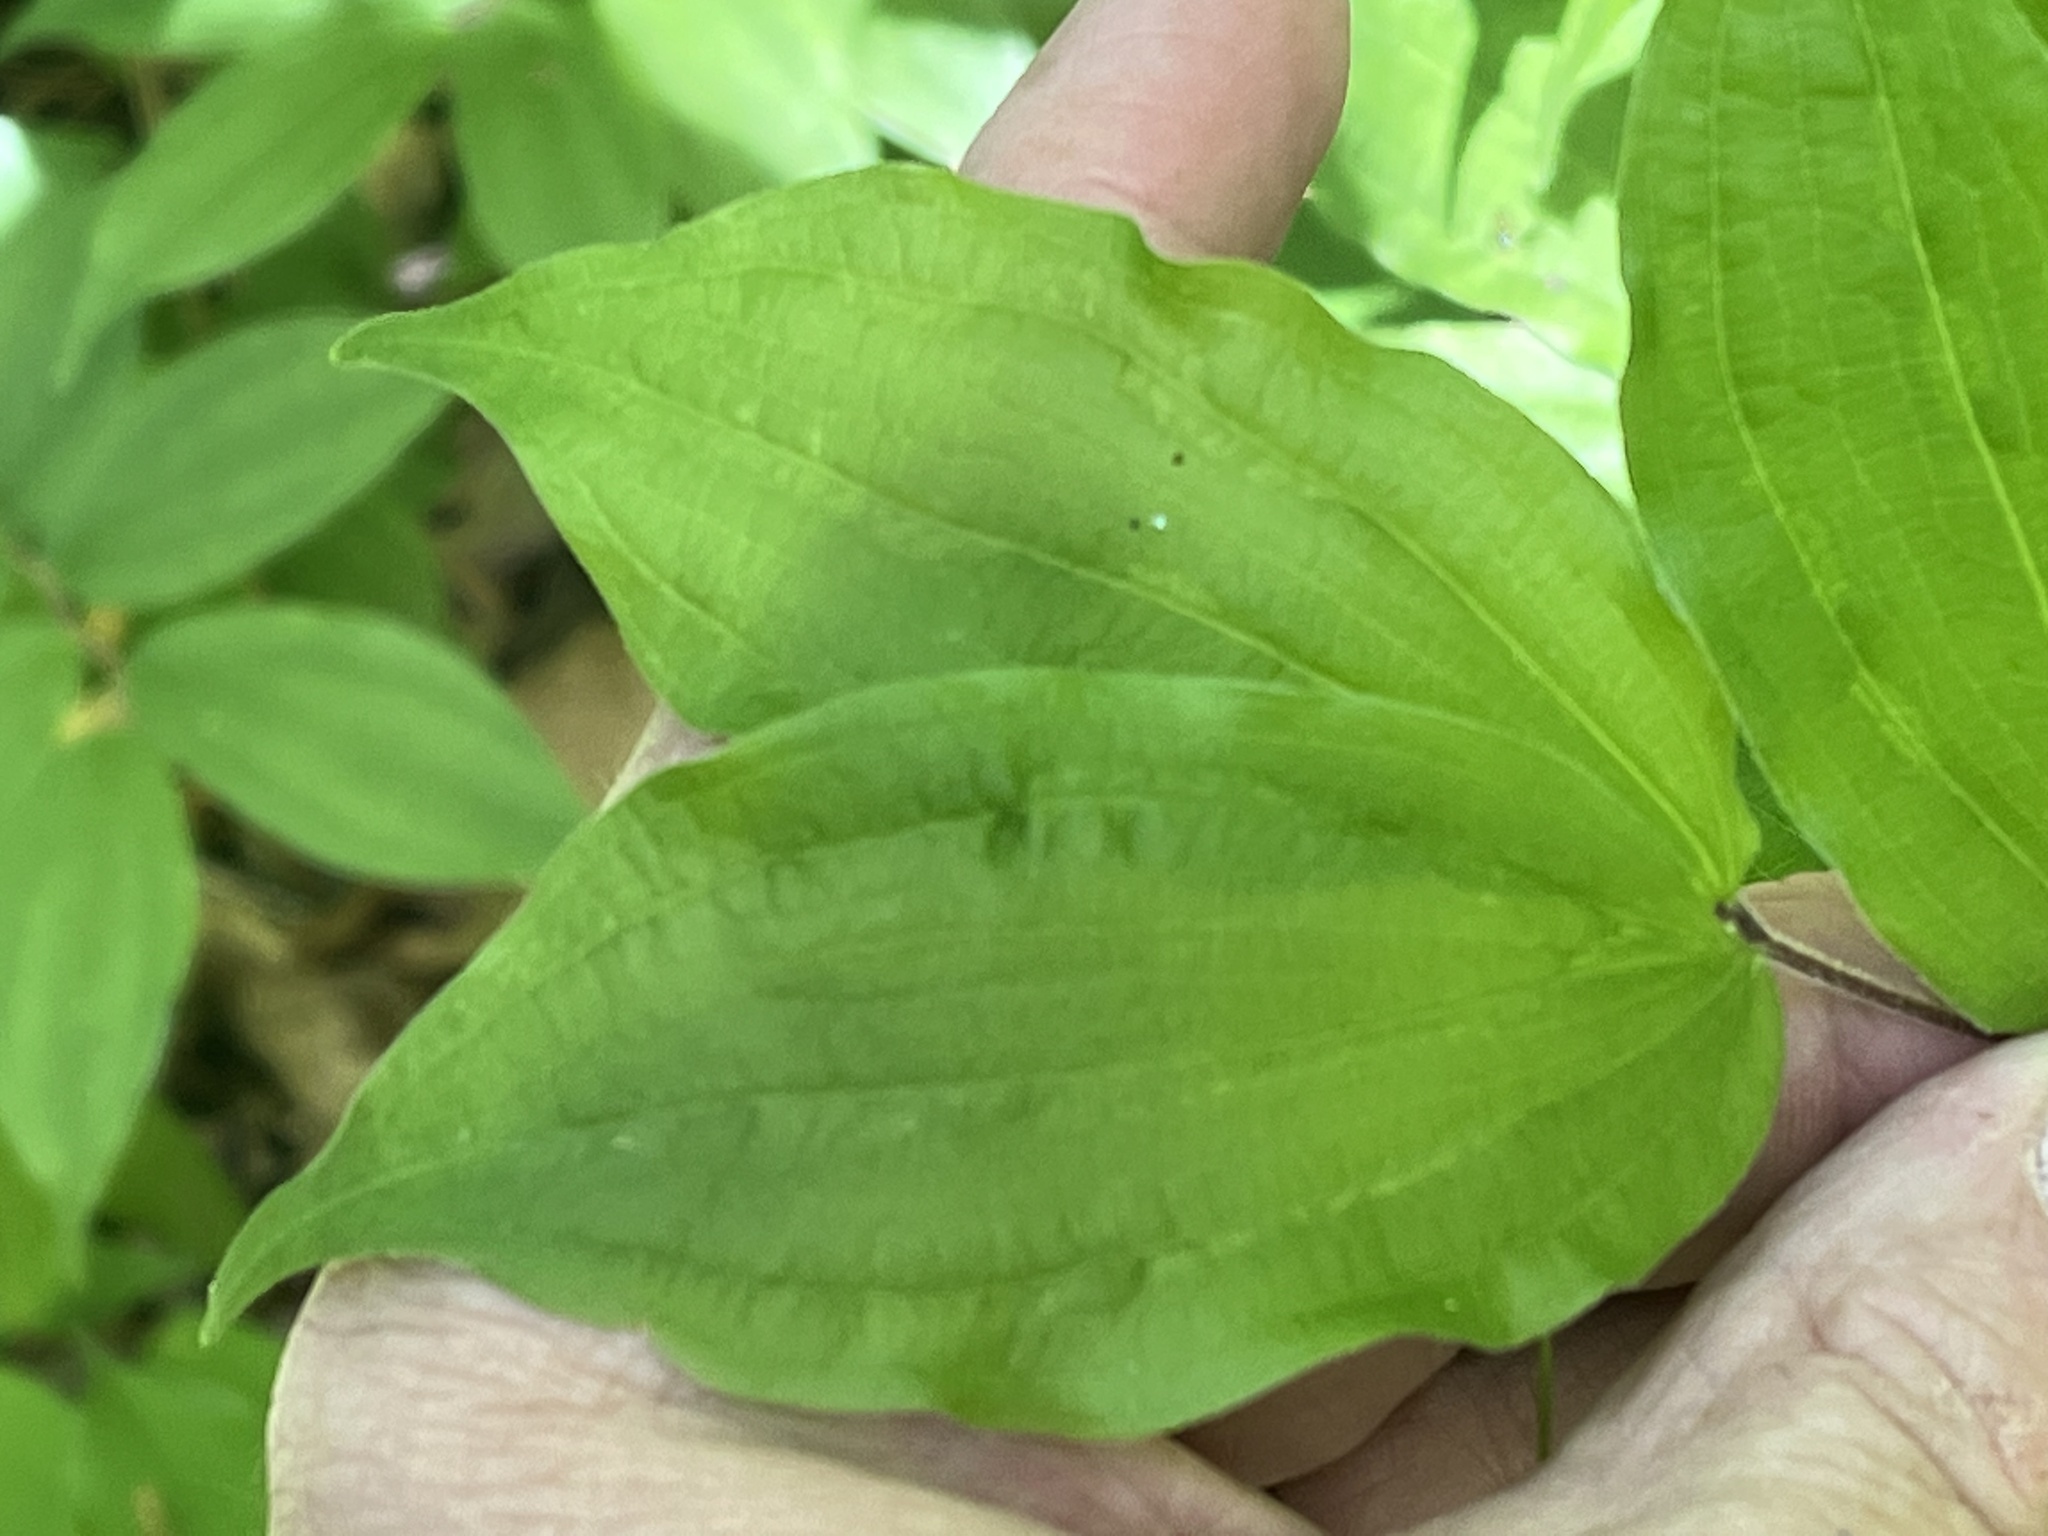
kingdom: Plantae
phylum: Tracheophyta
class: Liliopsida
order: Liliales
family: Liliaceae
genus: Prosartes
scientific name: Prosartes lanuginosa
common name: Hairy mandarin
